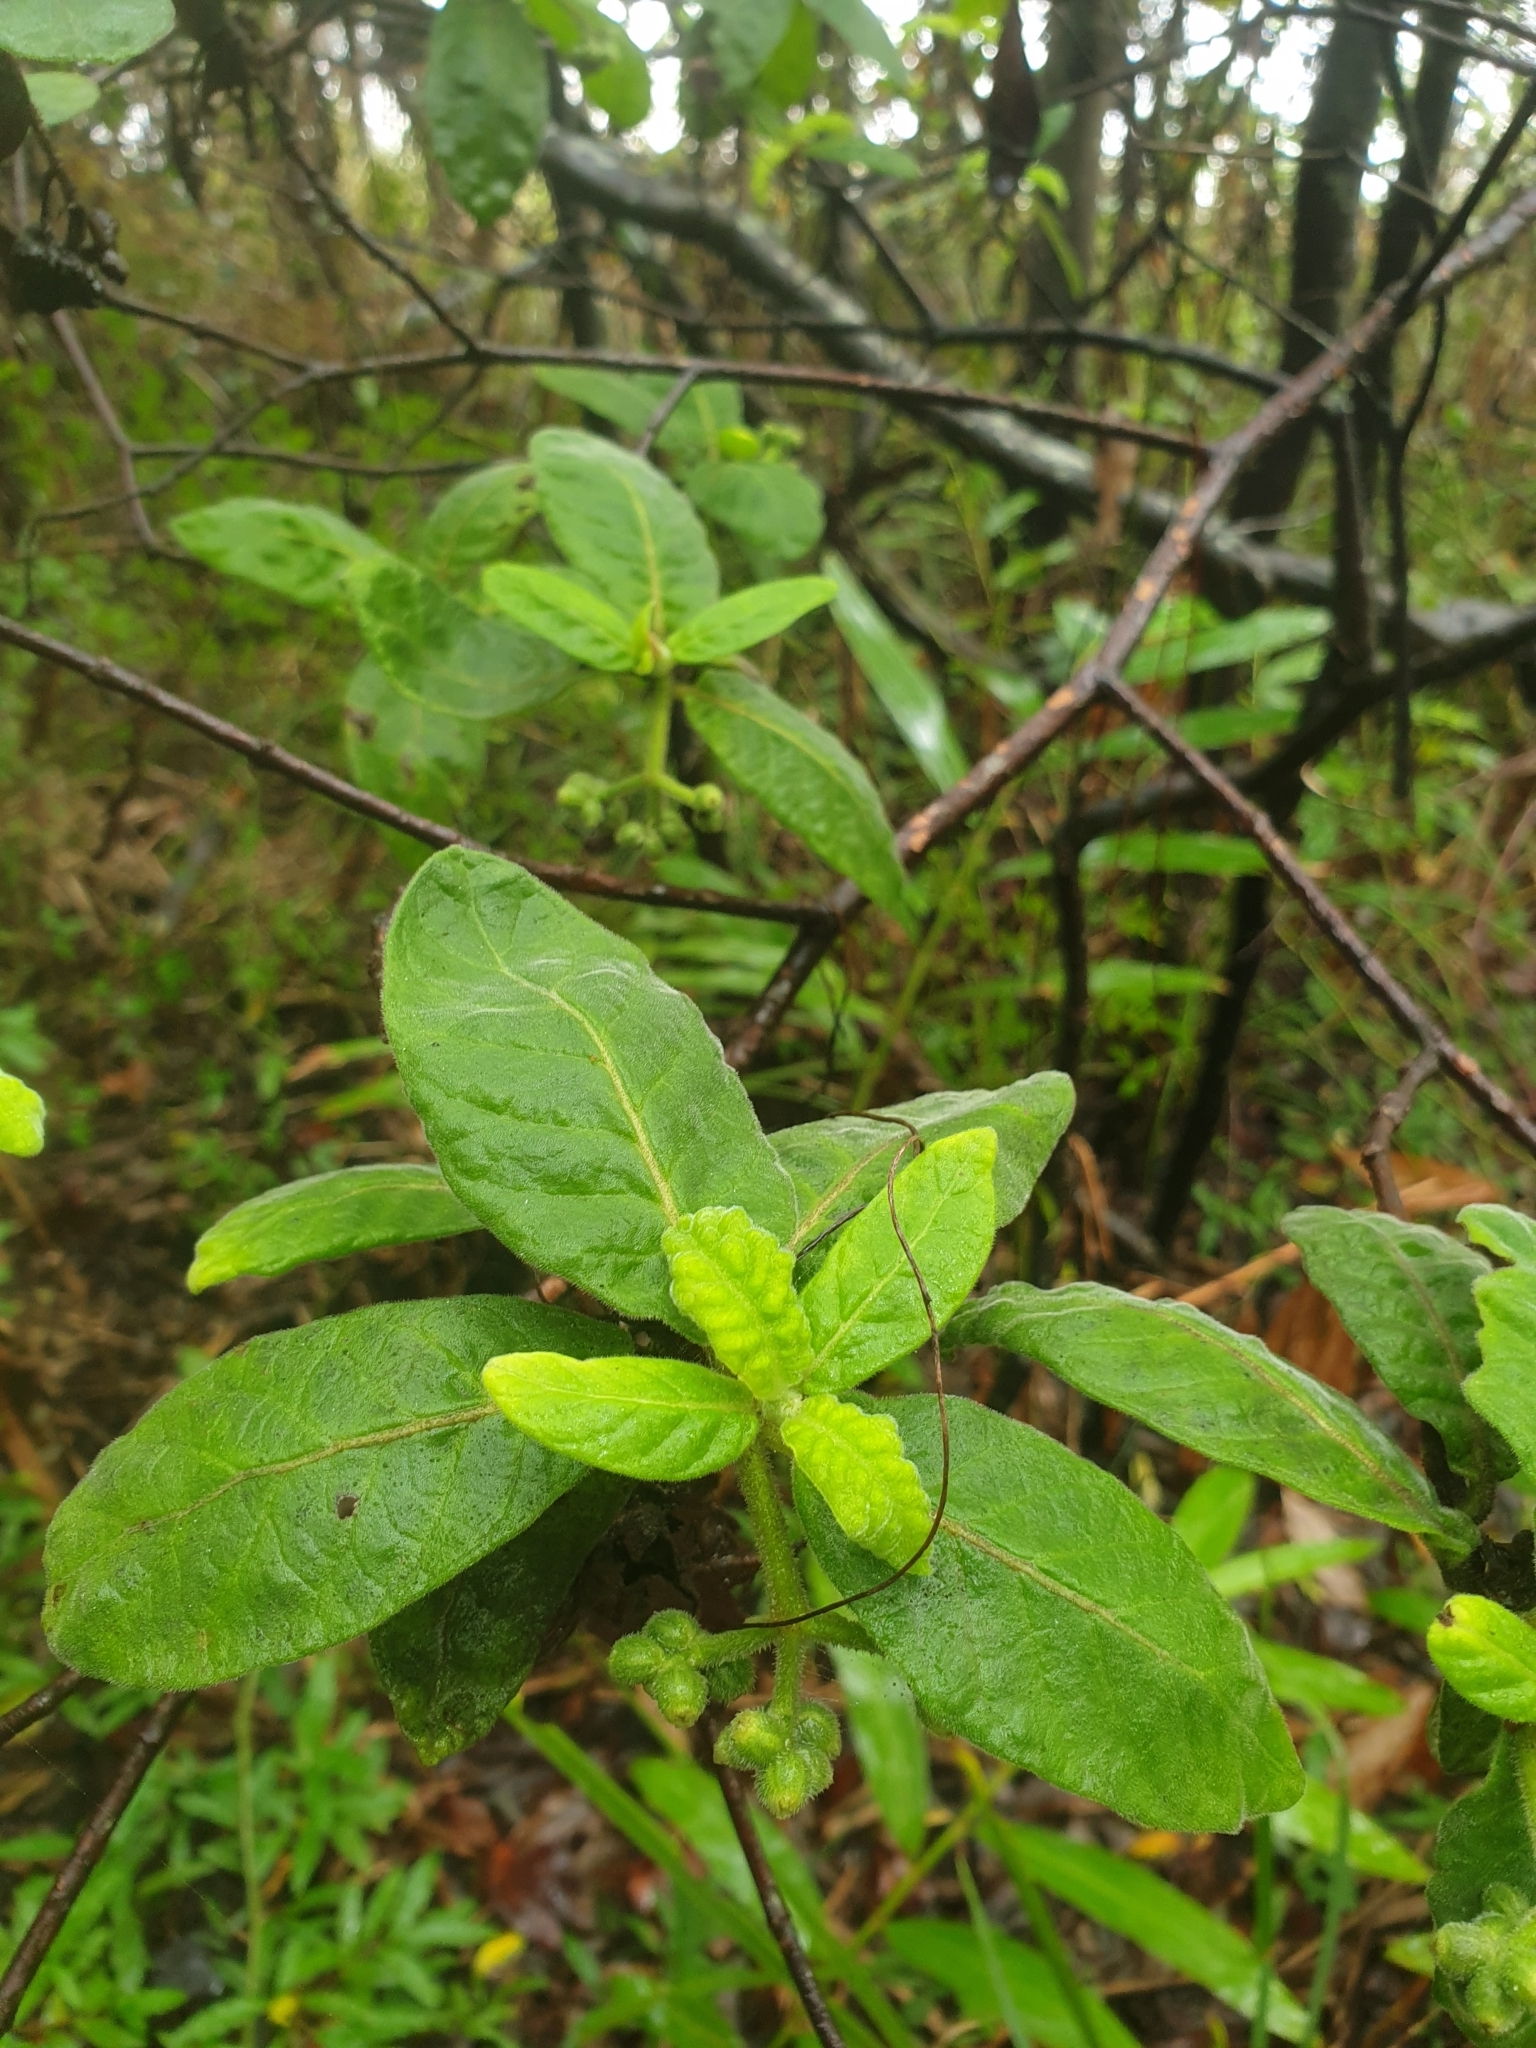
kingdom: Plantae
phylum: Tracheophyta
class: Magnoliopsida
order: Gentianales
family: Rubiaceae
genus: Psychotria
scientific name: Psychotria loniceroides
